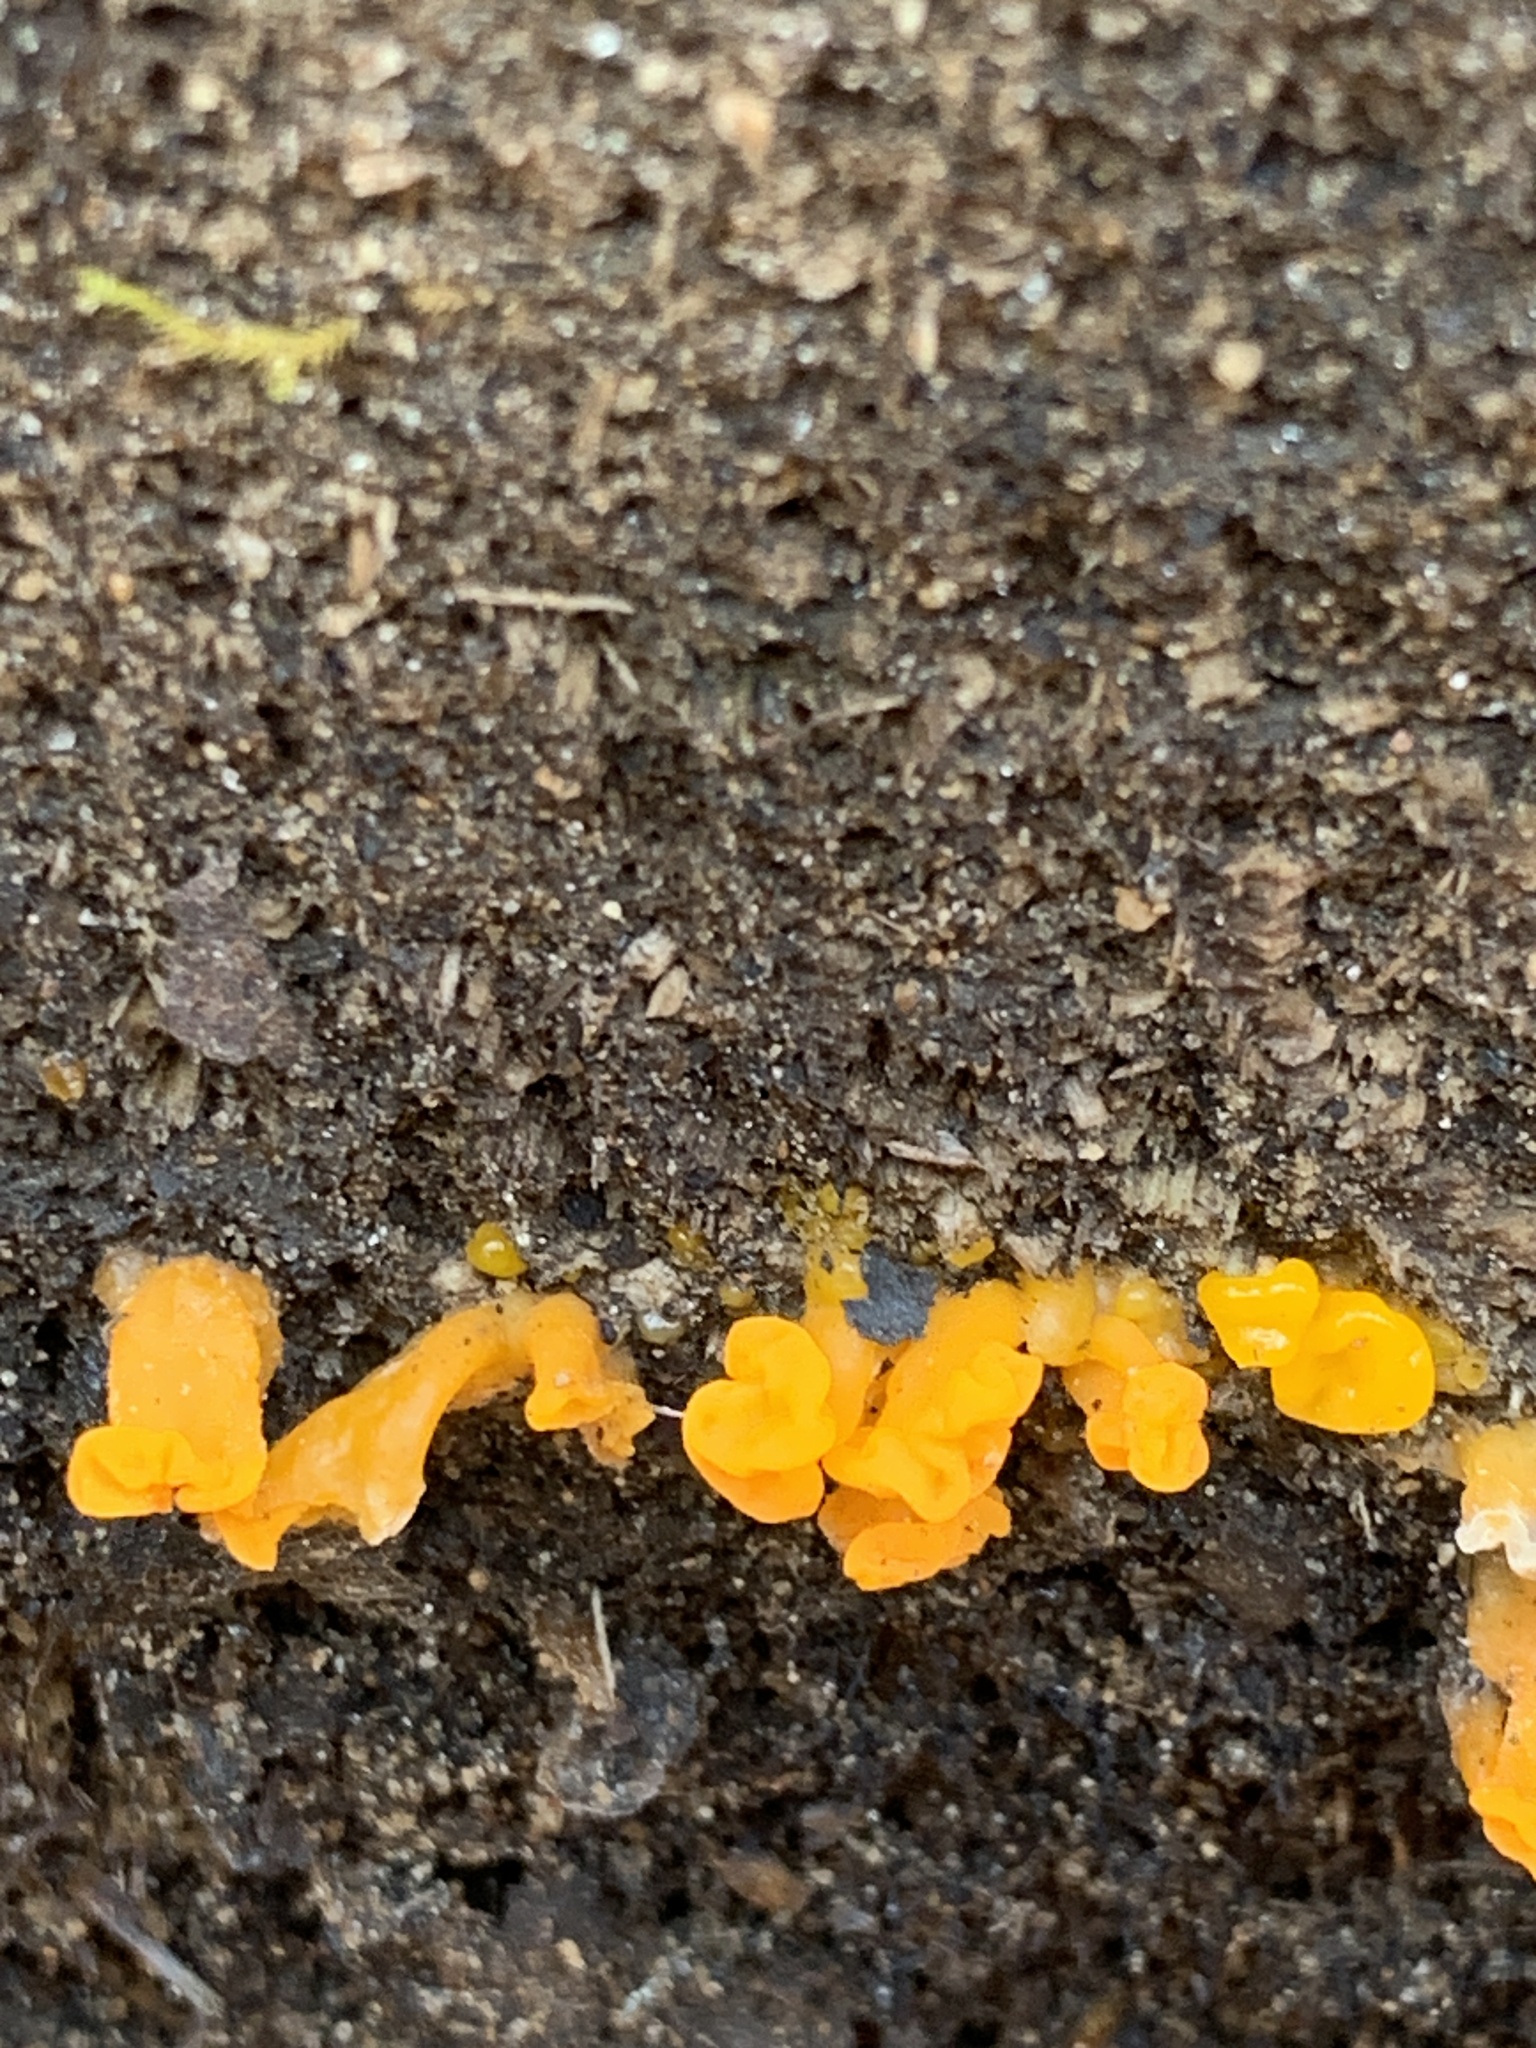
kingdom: Fungi
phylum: Basidiomycota
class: Dacrymycetes
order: Dacrymycetales
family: Dacrymycetaceae
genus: Dacrymyces
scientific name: Dacrymyces chrysospermus
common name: Orange jelly spot
